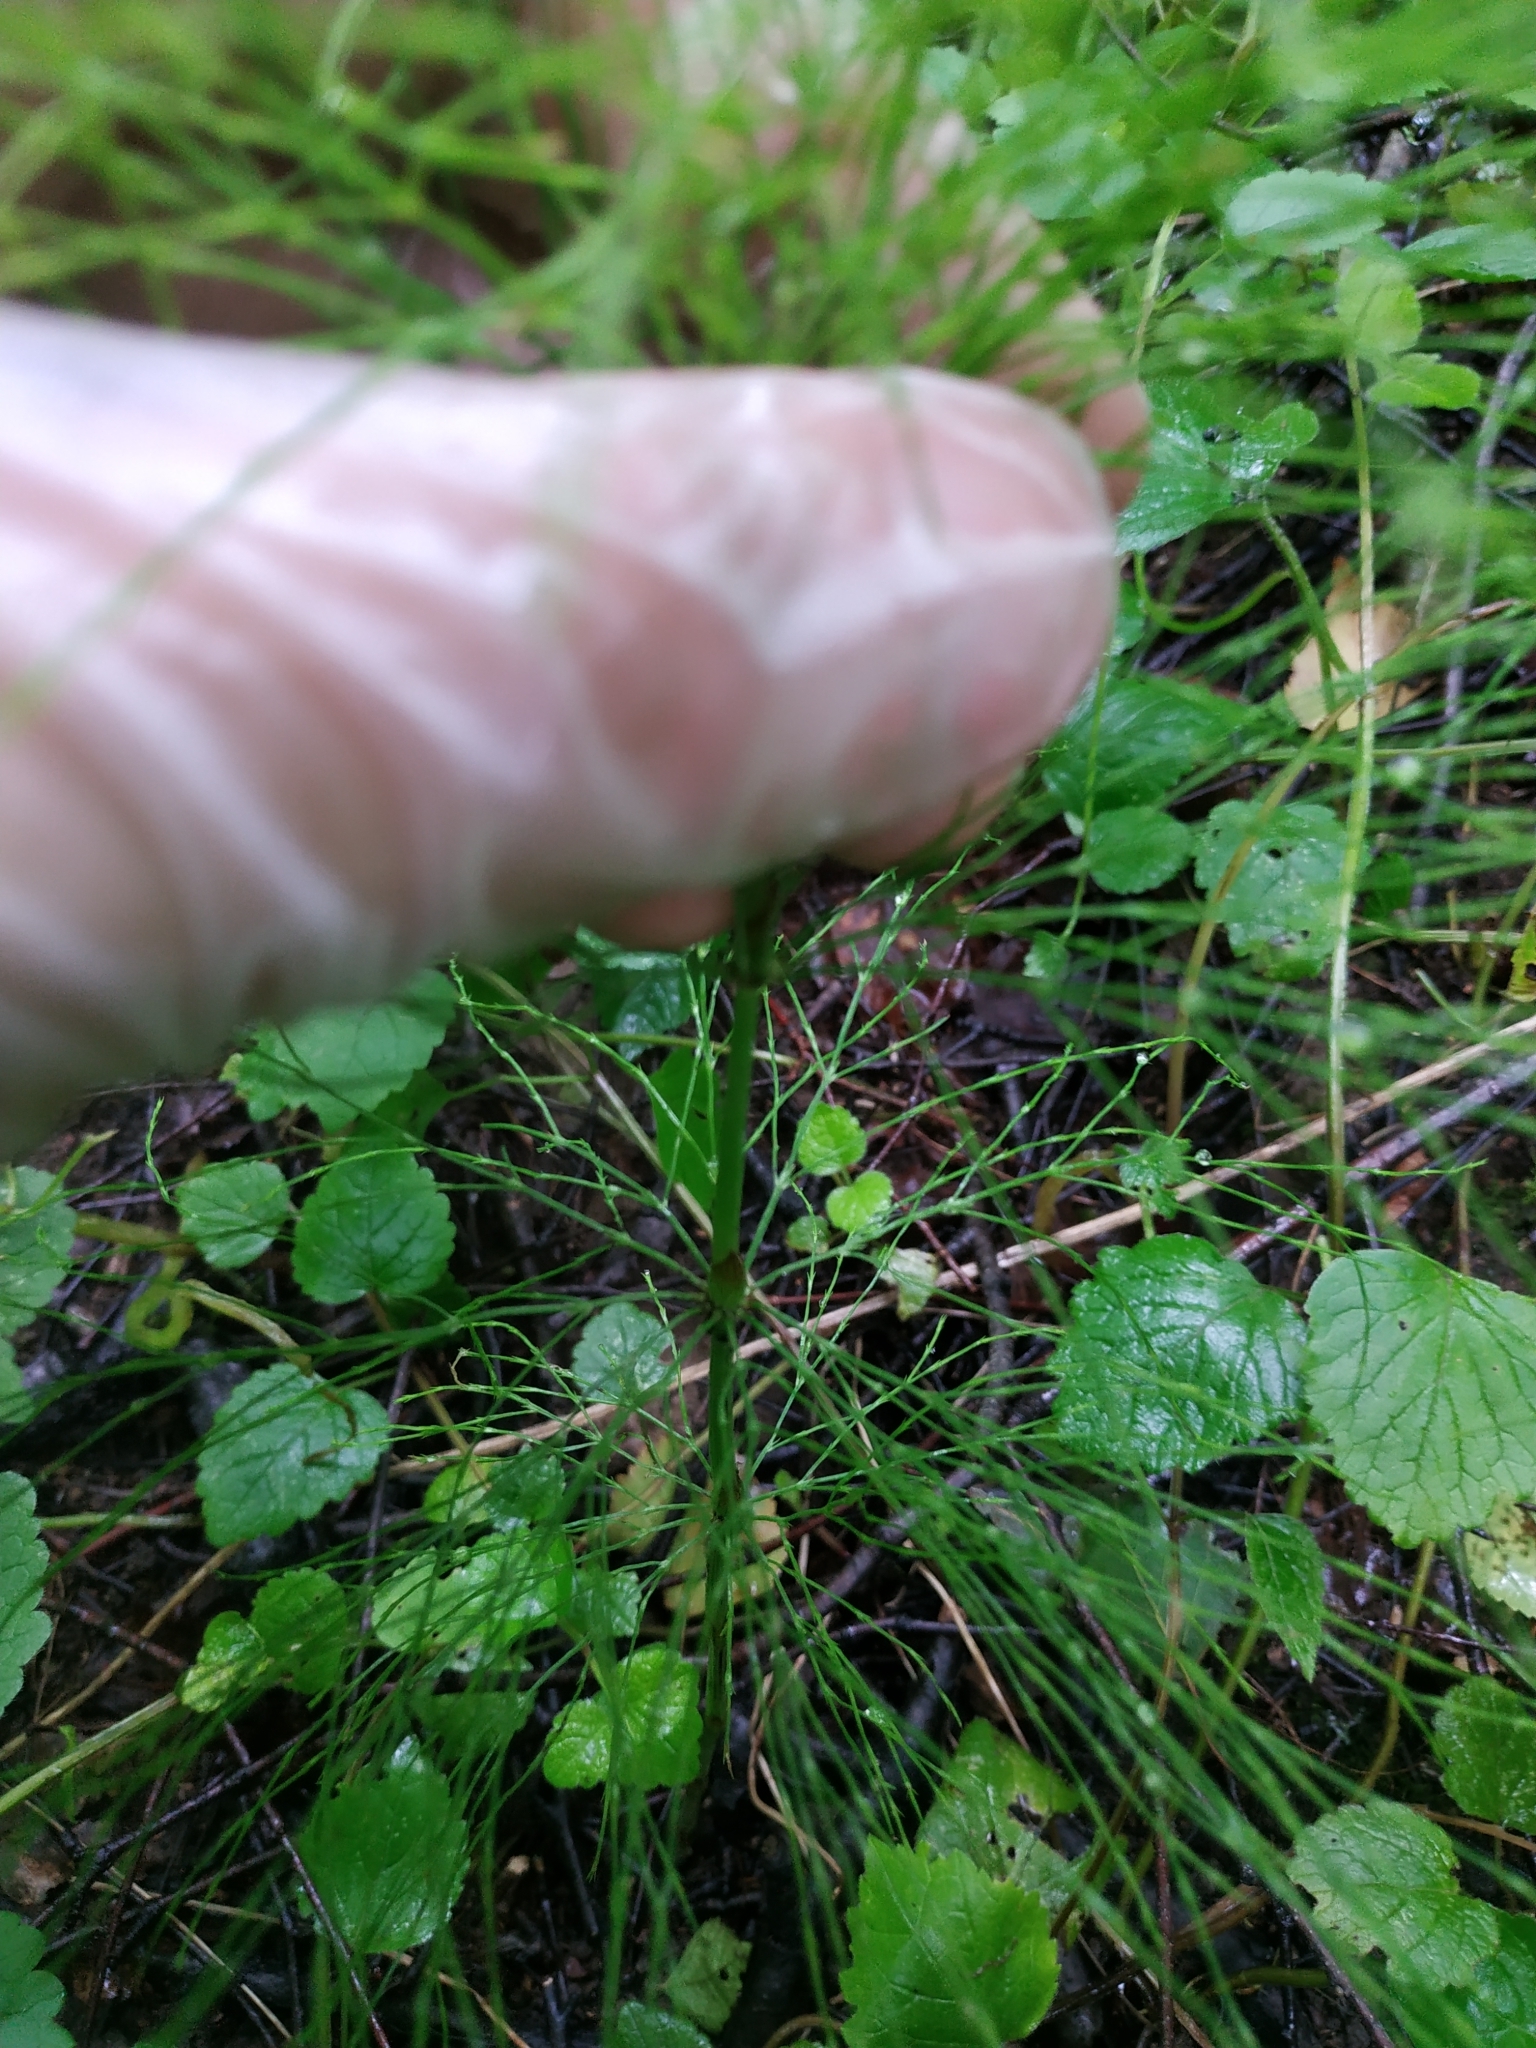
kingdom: Plantae
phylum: Tracheophyta
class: Polypodiopsida
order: Equisetales
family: Equisetaceae
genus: Equisetum
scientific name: Equisetum sylvaticum
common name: Wood horsetail
